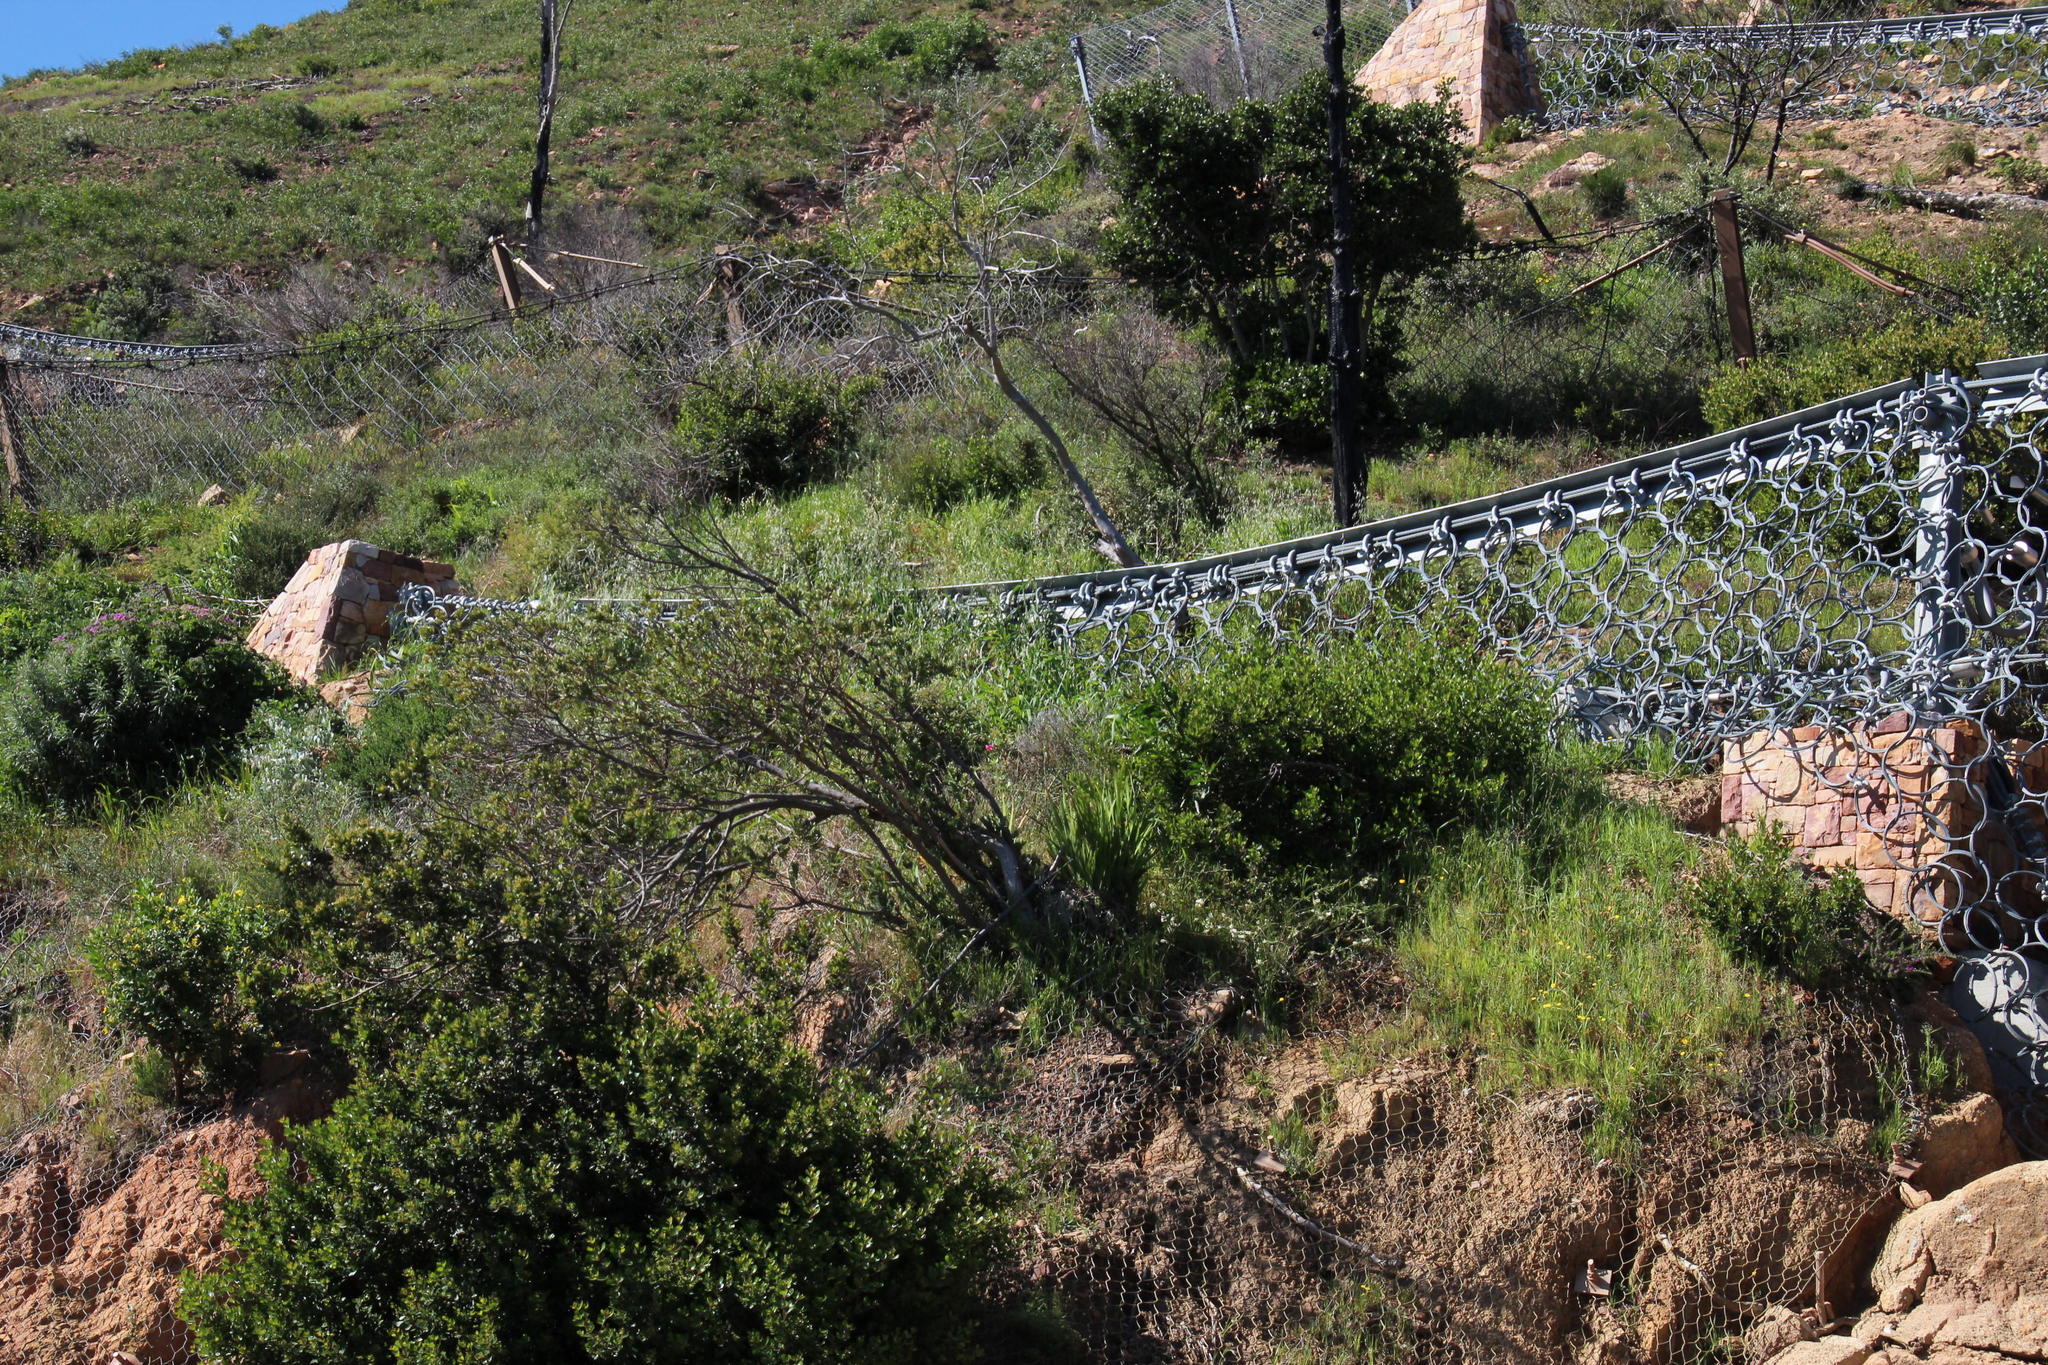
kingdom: Plantae
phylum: Tracheophyta
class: Magnoliopsida
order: Dipsacales
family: Caprifoliaceae
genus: Centranthus
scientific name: Centranthus ruber
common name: Red valerian
